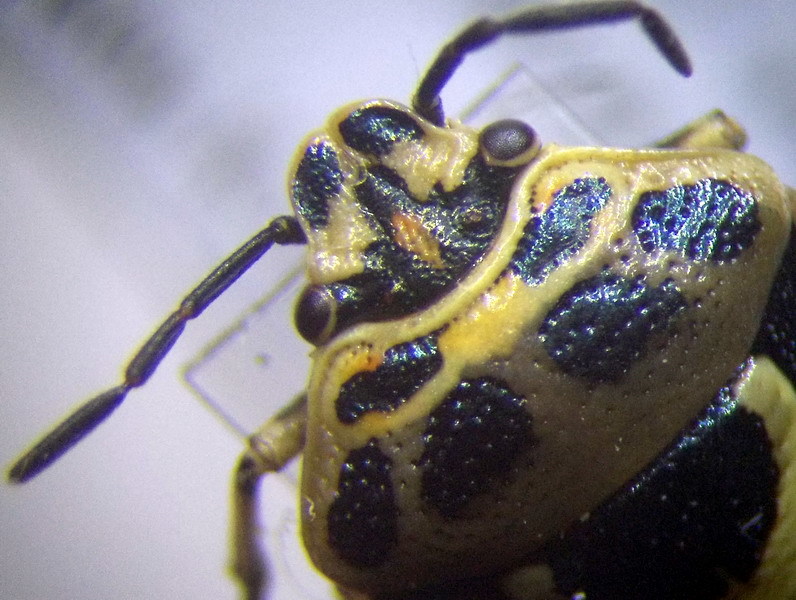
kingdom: Animalia
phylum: Arthropoda
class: Insecta
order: Hemiptera
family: Pentatomidae
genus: Eurydema
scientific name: Eurydema ornata
